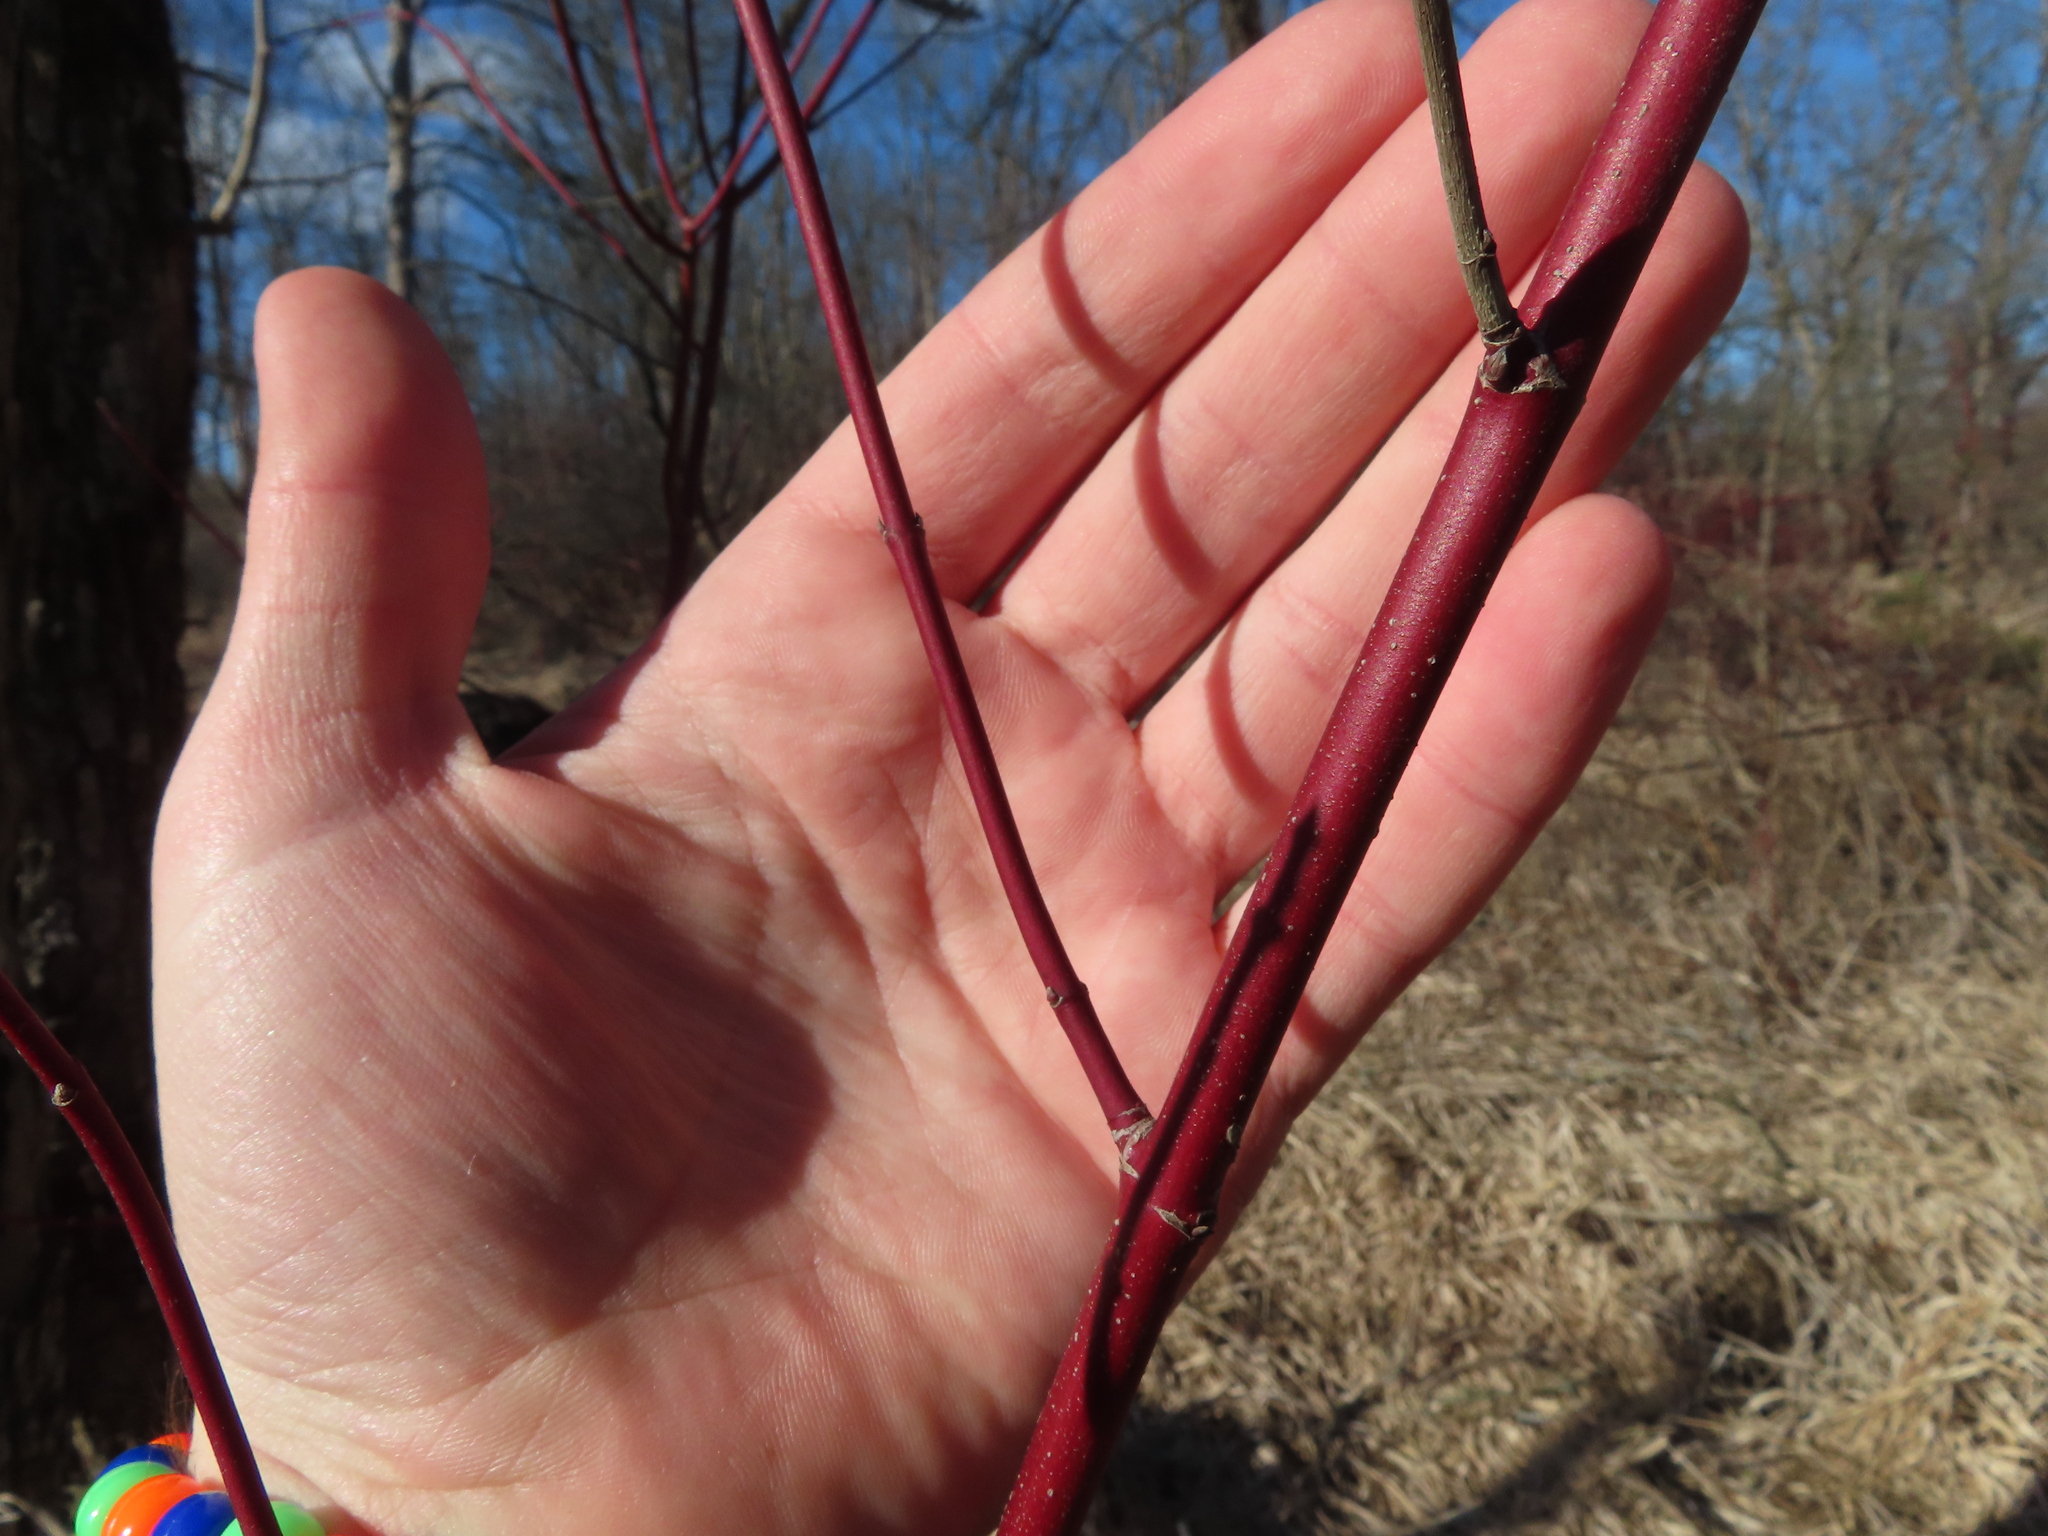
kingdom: Plantae
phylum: Tracheophyta
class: Magnoliopsida
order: Cornales
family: Cornaceae
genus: Cornus
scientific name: Cornus sericea
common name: Red-osier dogwood
